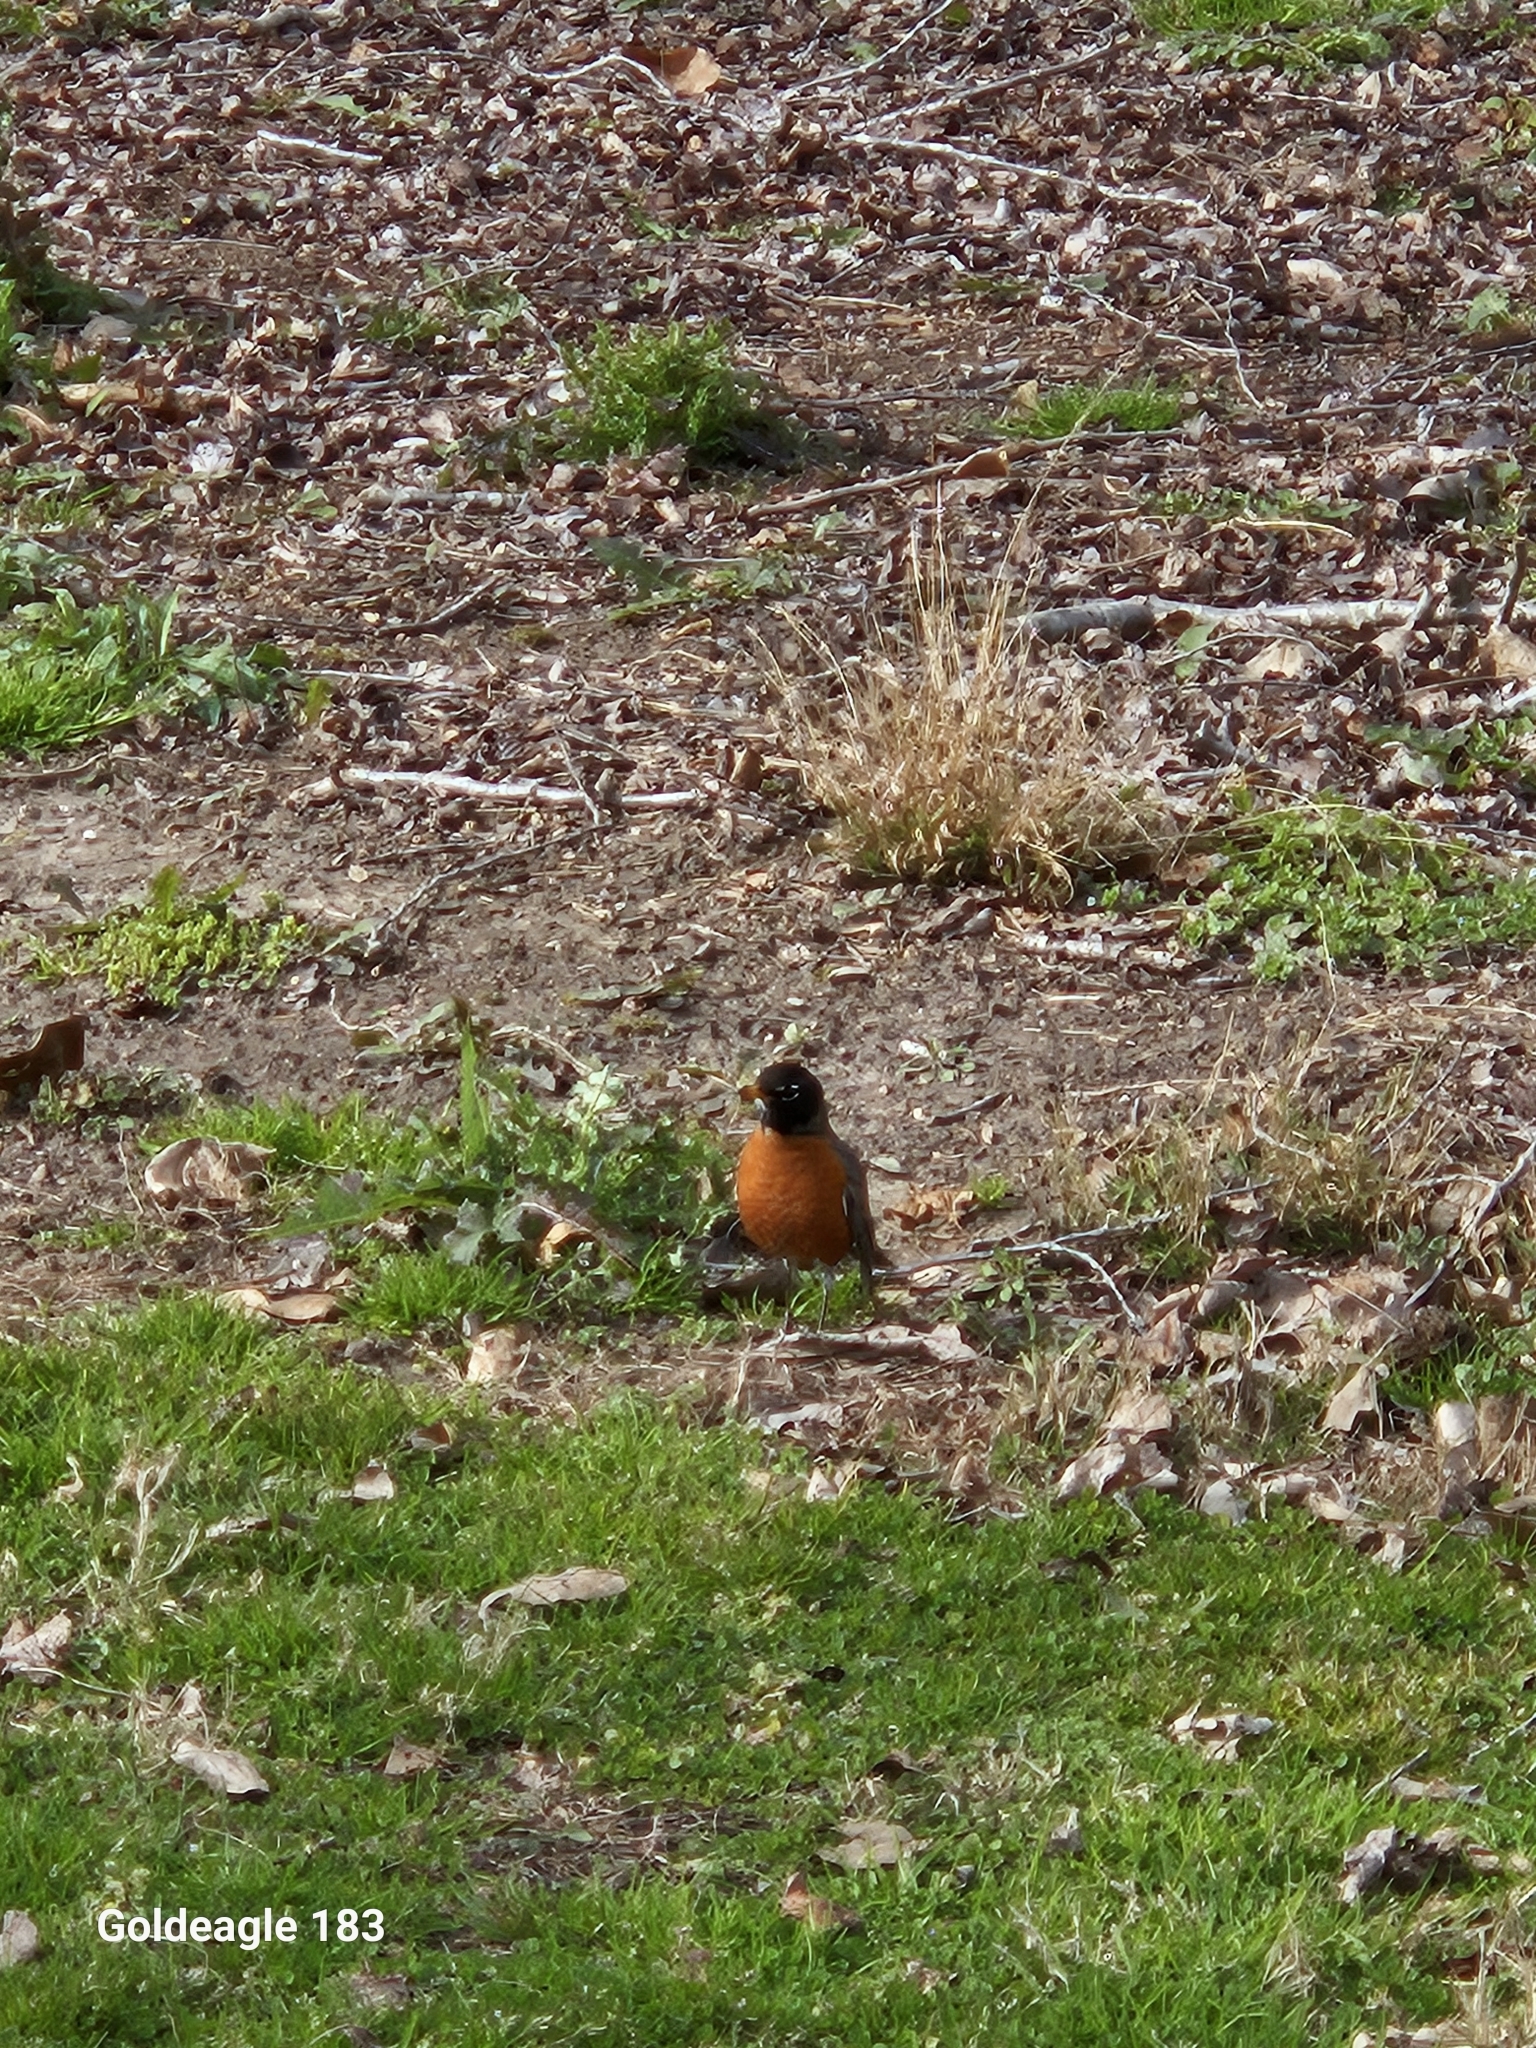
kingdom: Animalia
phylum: Chordata
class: Aves
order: Passeriformes
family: Turdidae
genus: Turdus
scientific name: Turdus migratorius
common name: American robin
